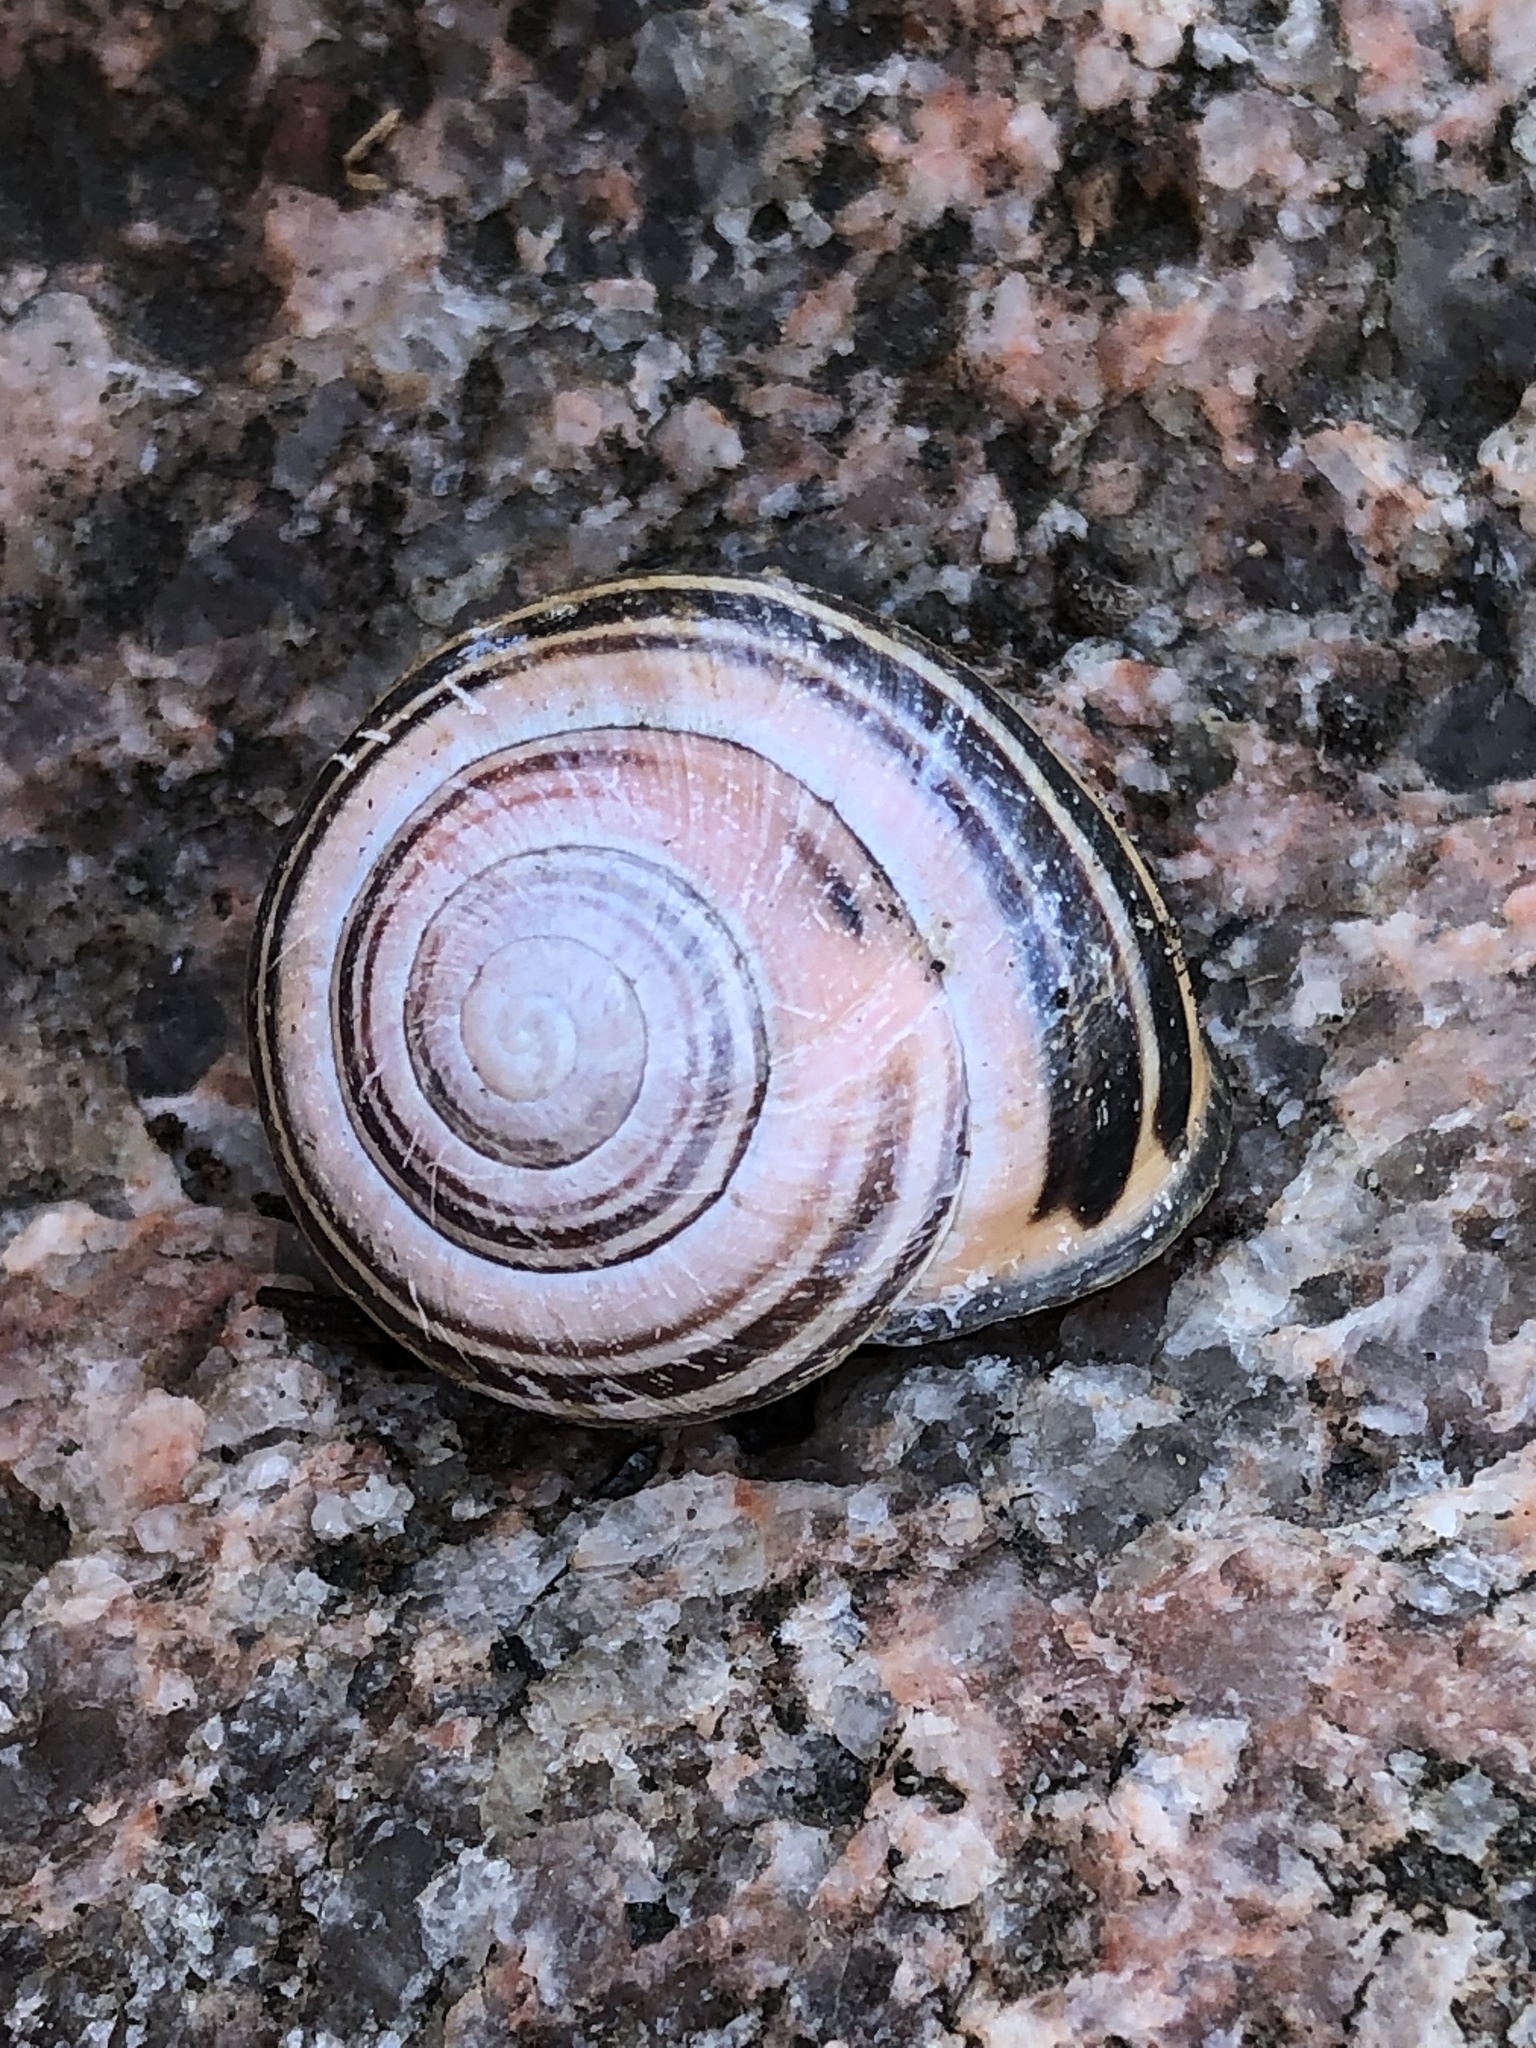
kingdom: Animalia
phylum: Mollusca
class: Gastropoda
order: Stylommatophora
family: Helicidae
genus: Cepaea
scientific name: Cepaea nemoralis
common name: Grovesnail
